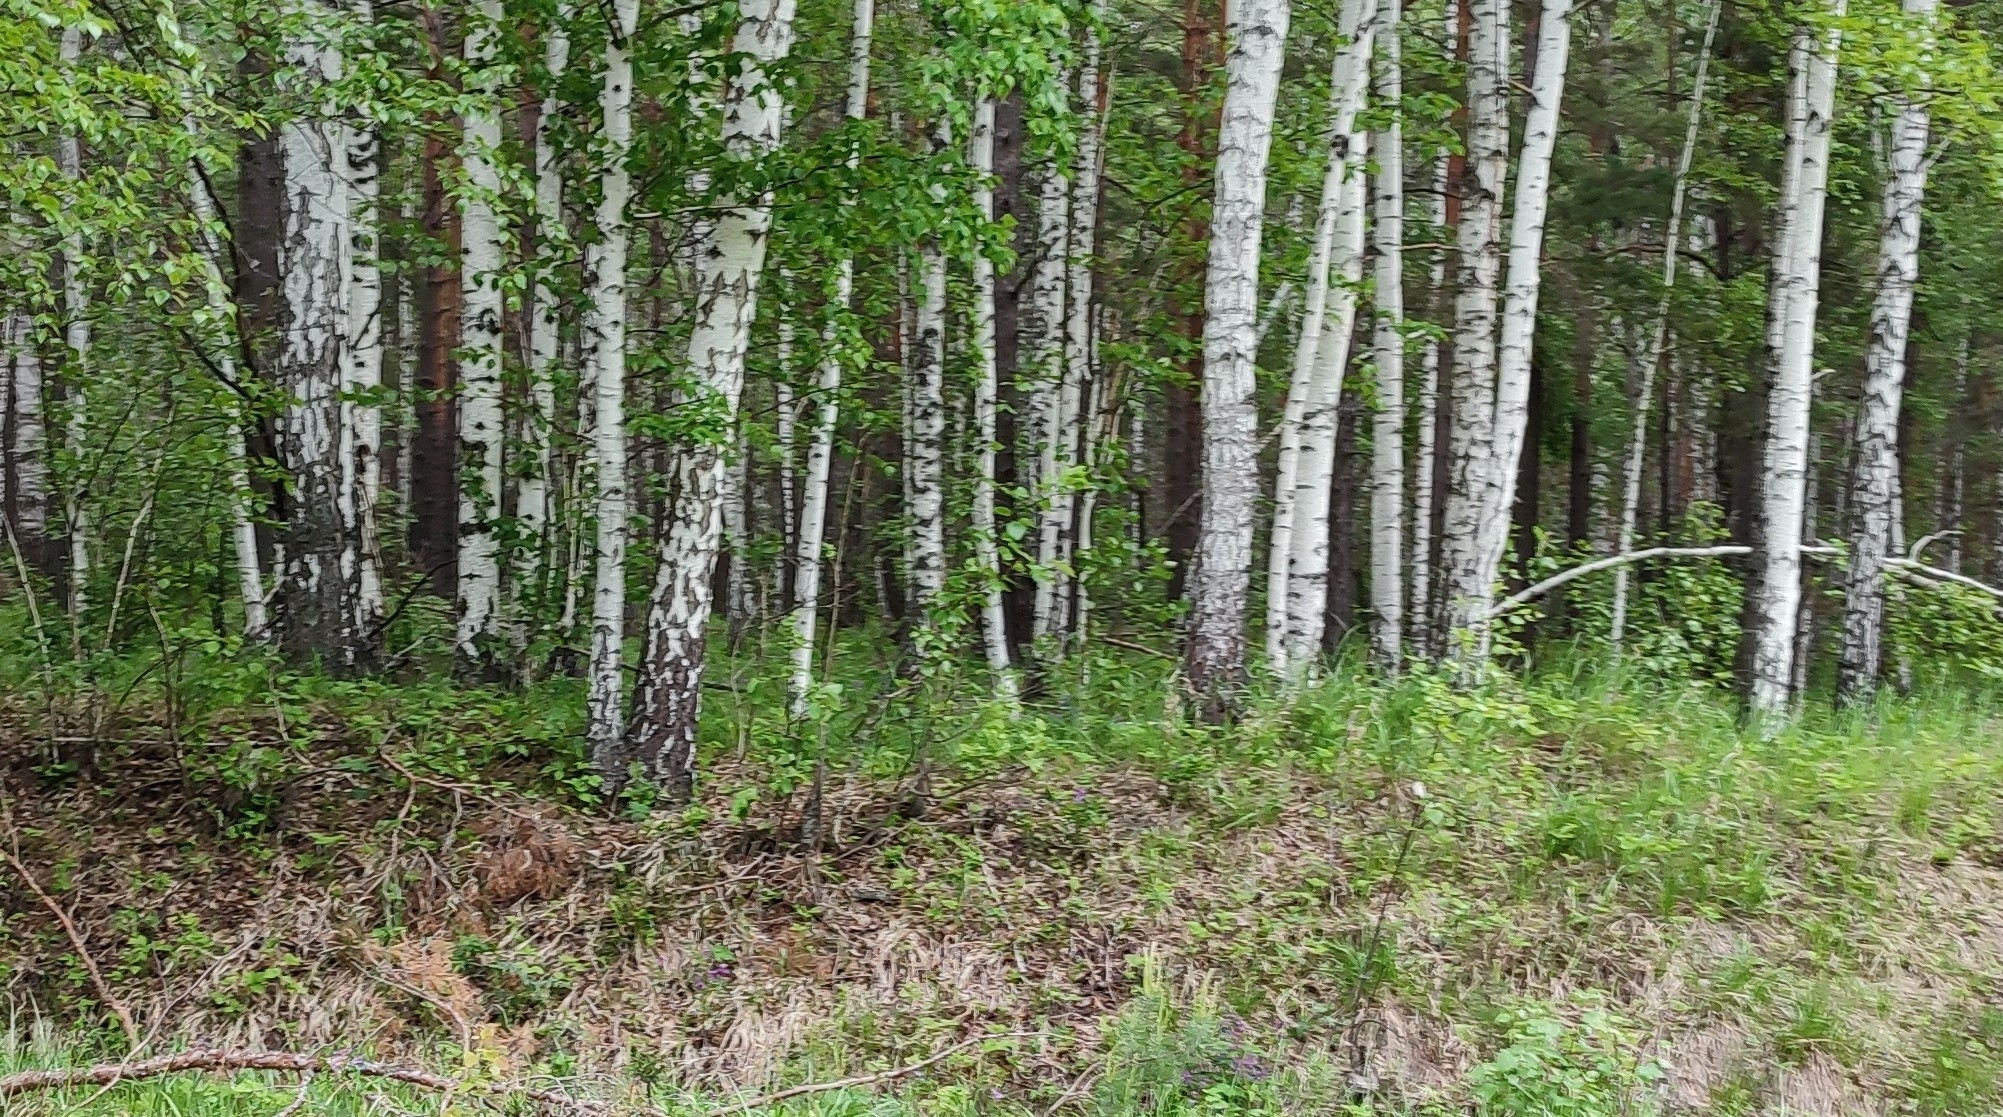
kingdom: Plantae
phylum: Tracheophyta
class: Magnoliopsida
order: Fagales
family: Betulaceae
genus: Betula
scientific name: Betula pendula
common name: Silver birch
